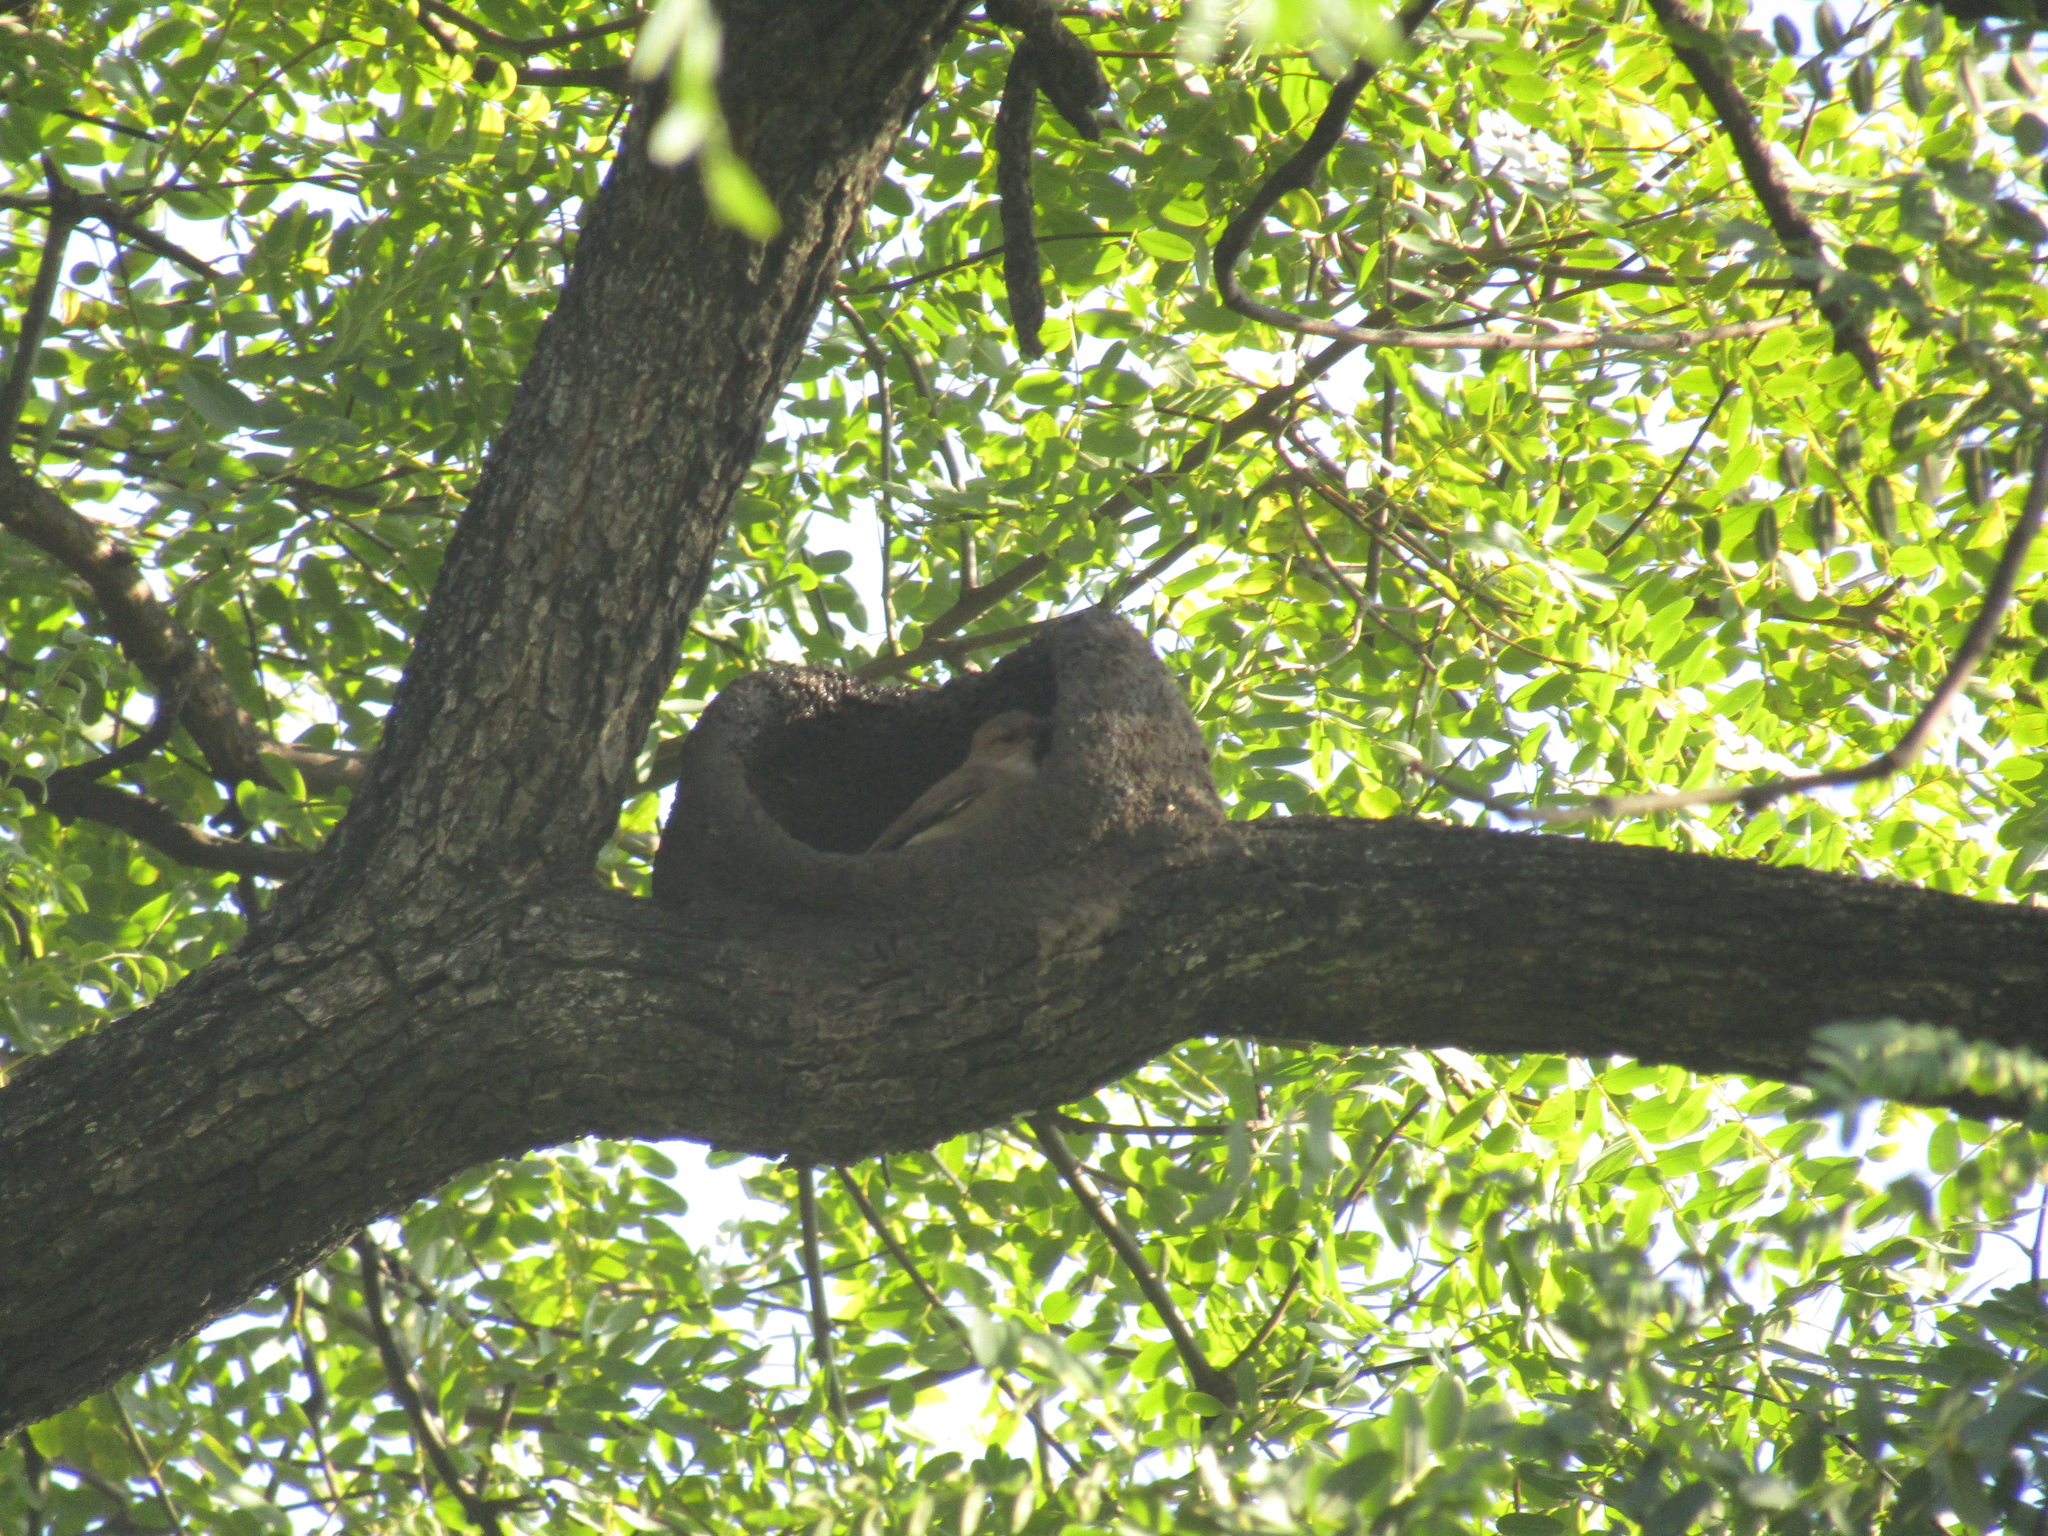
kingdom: Animalia
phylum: Chordata
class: Aves
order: Passeriformes
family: Furnariidae
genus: Furnarius
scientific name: Furnarius rufus
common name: Rufous hornero
